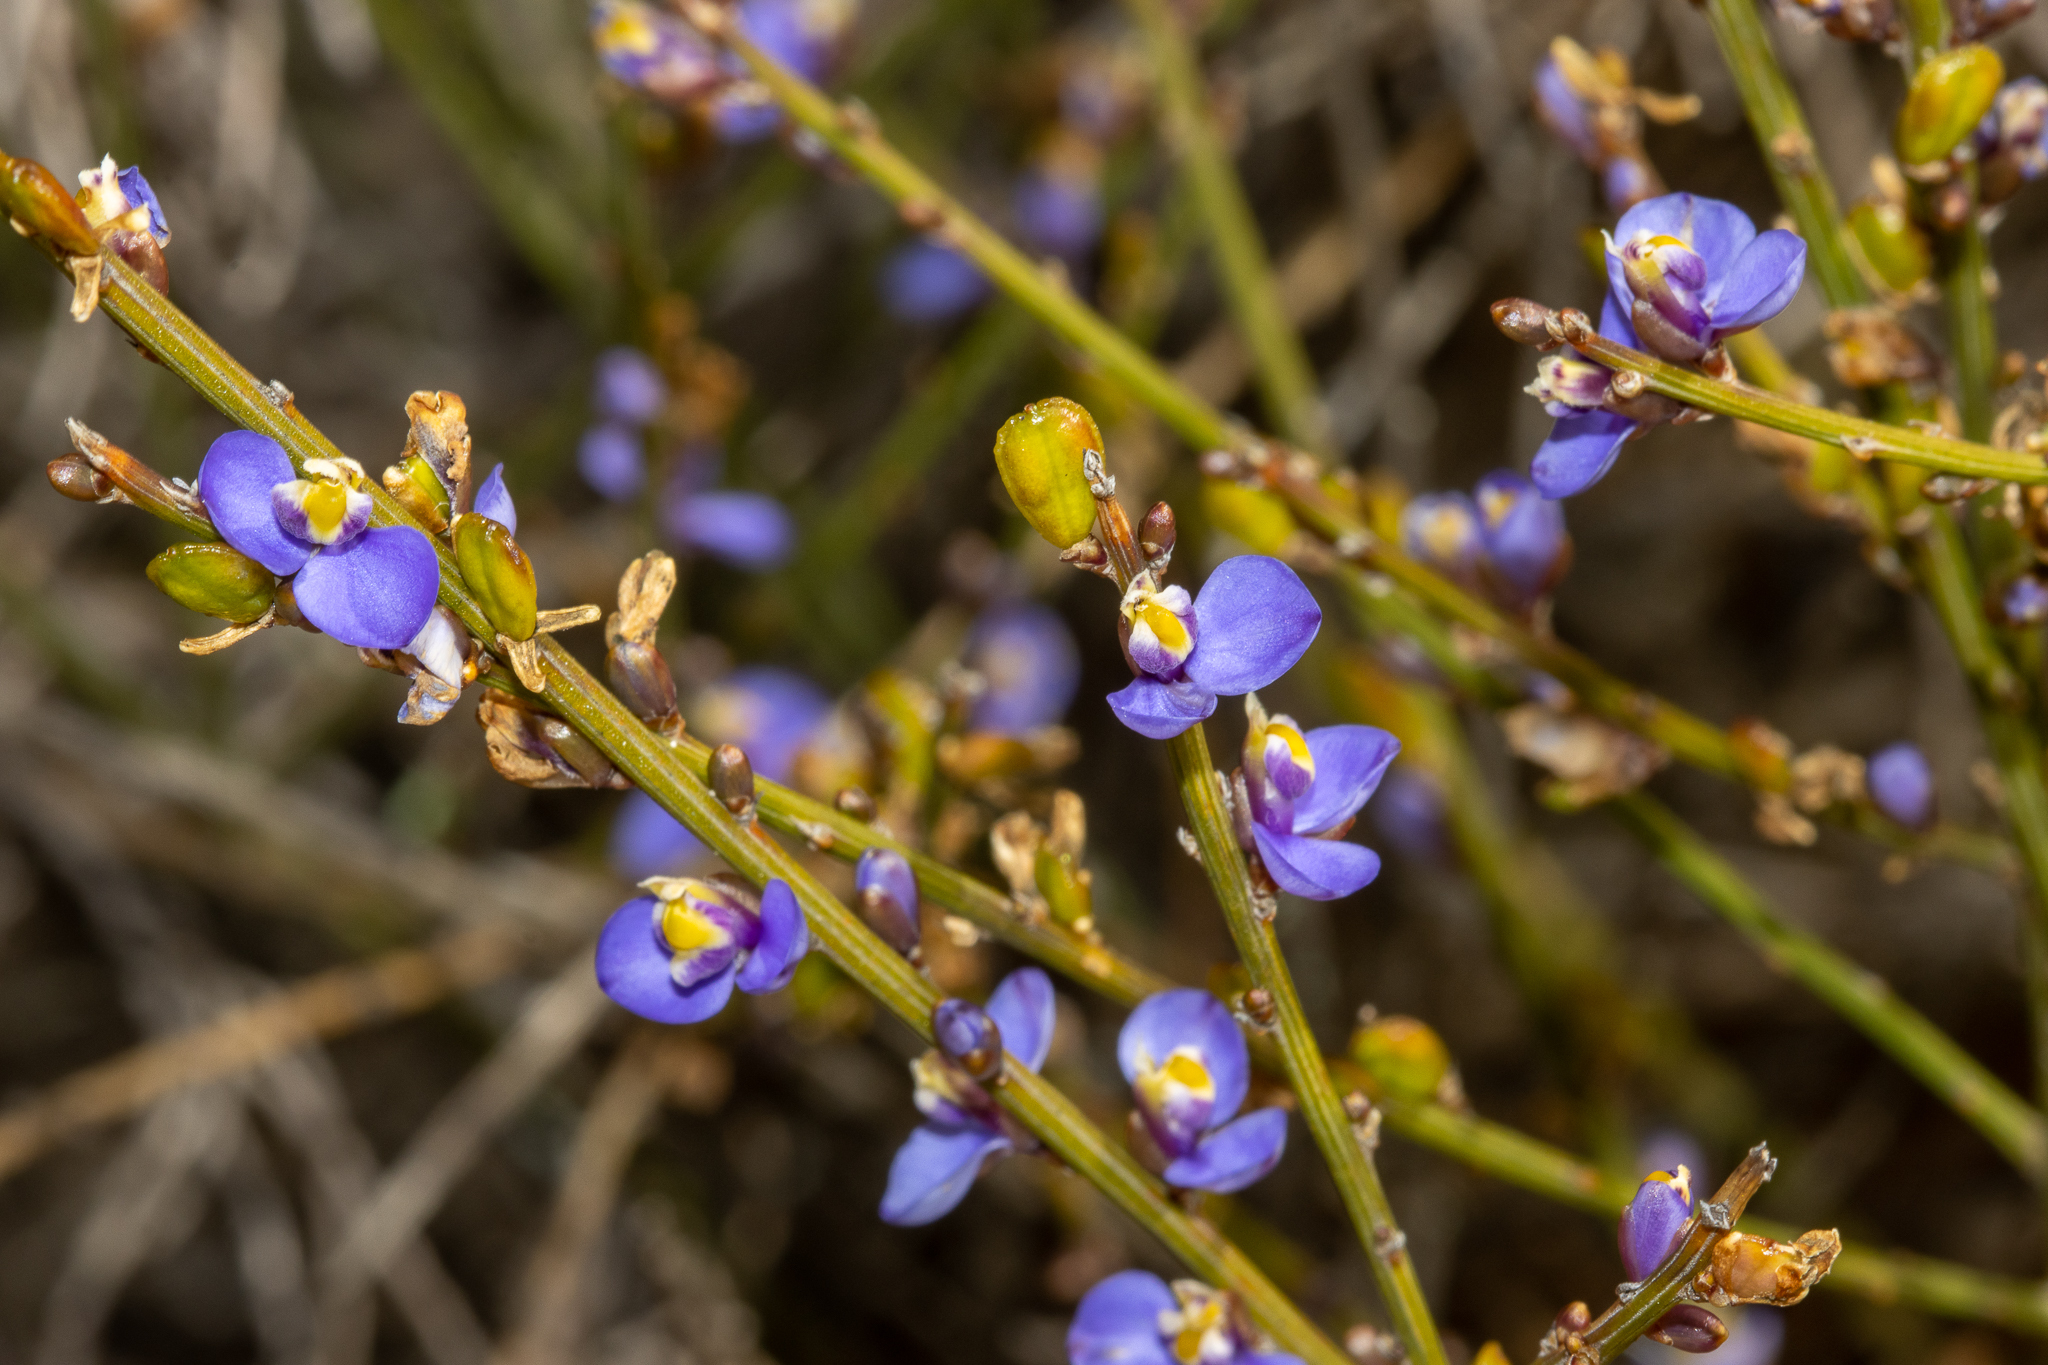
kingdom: Plantae
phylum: Tracheophyta
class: Magnoliopsida
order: Fabales
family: Polygalaceae
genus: Comesperma
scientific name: Comesperma scoparium
